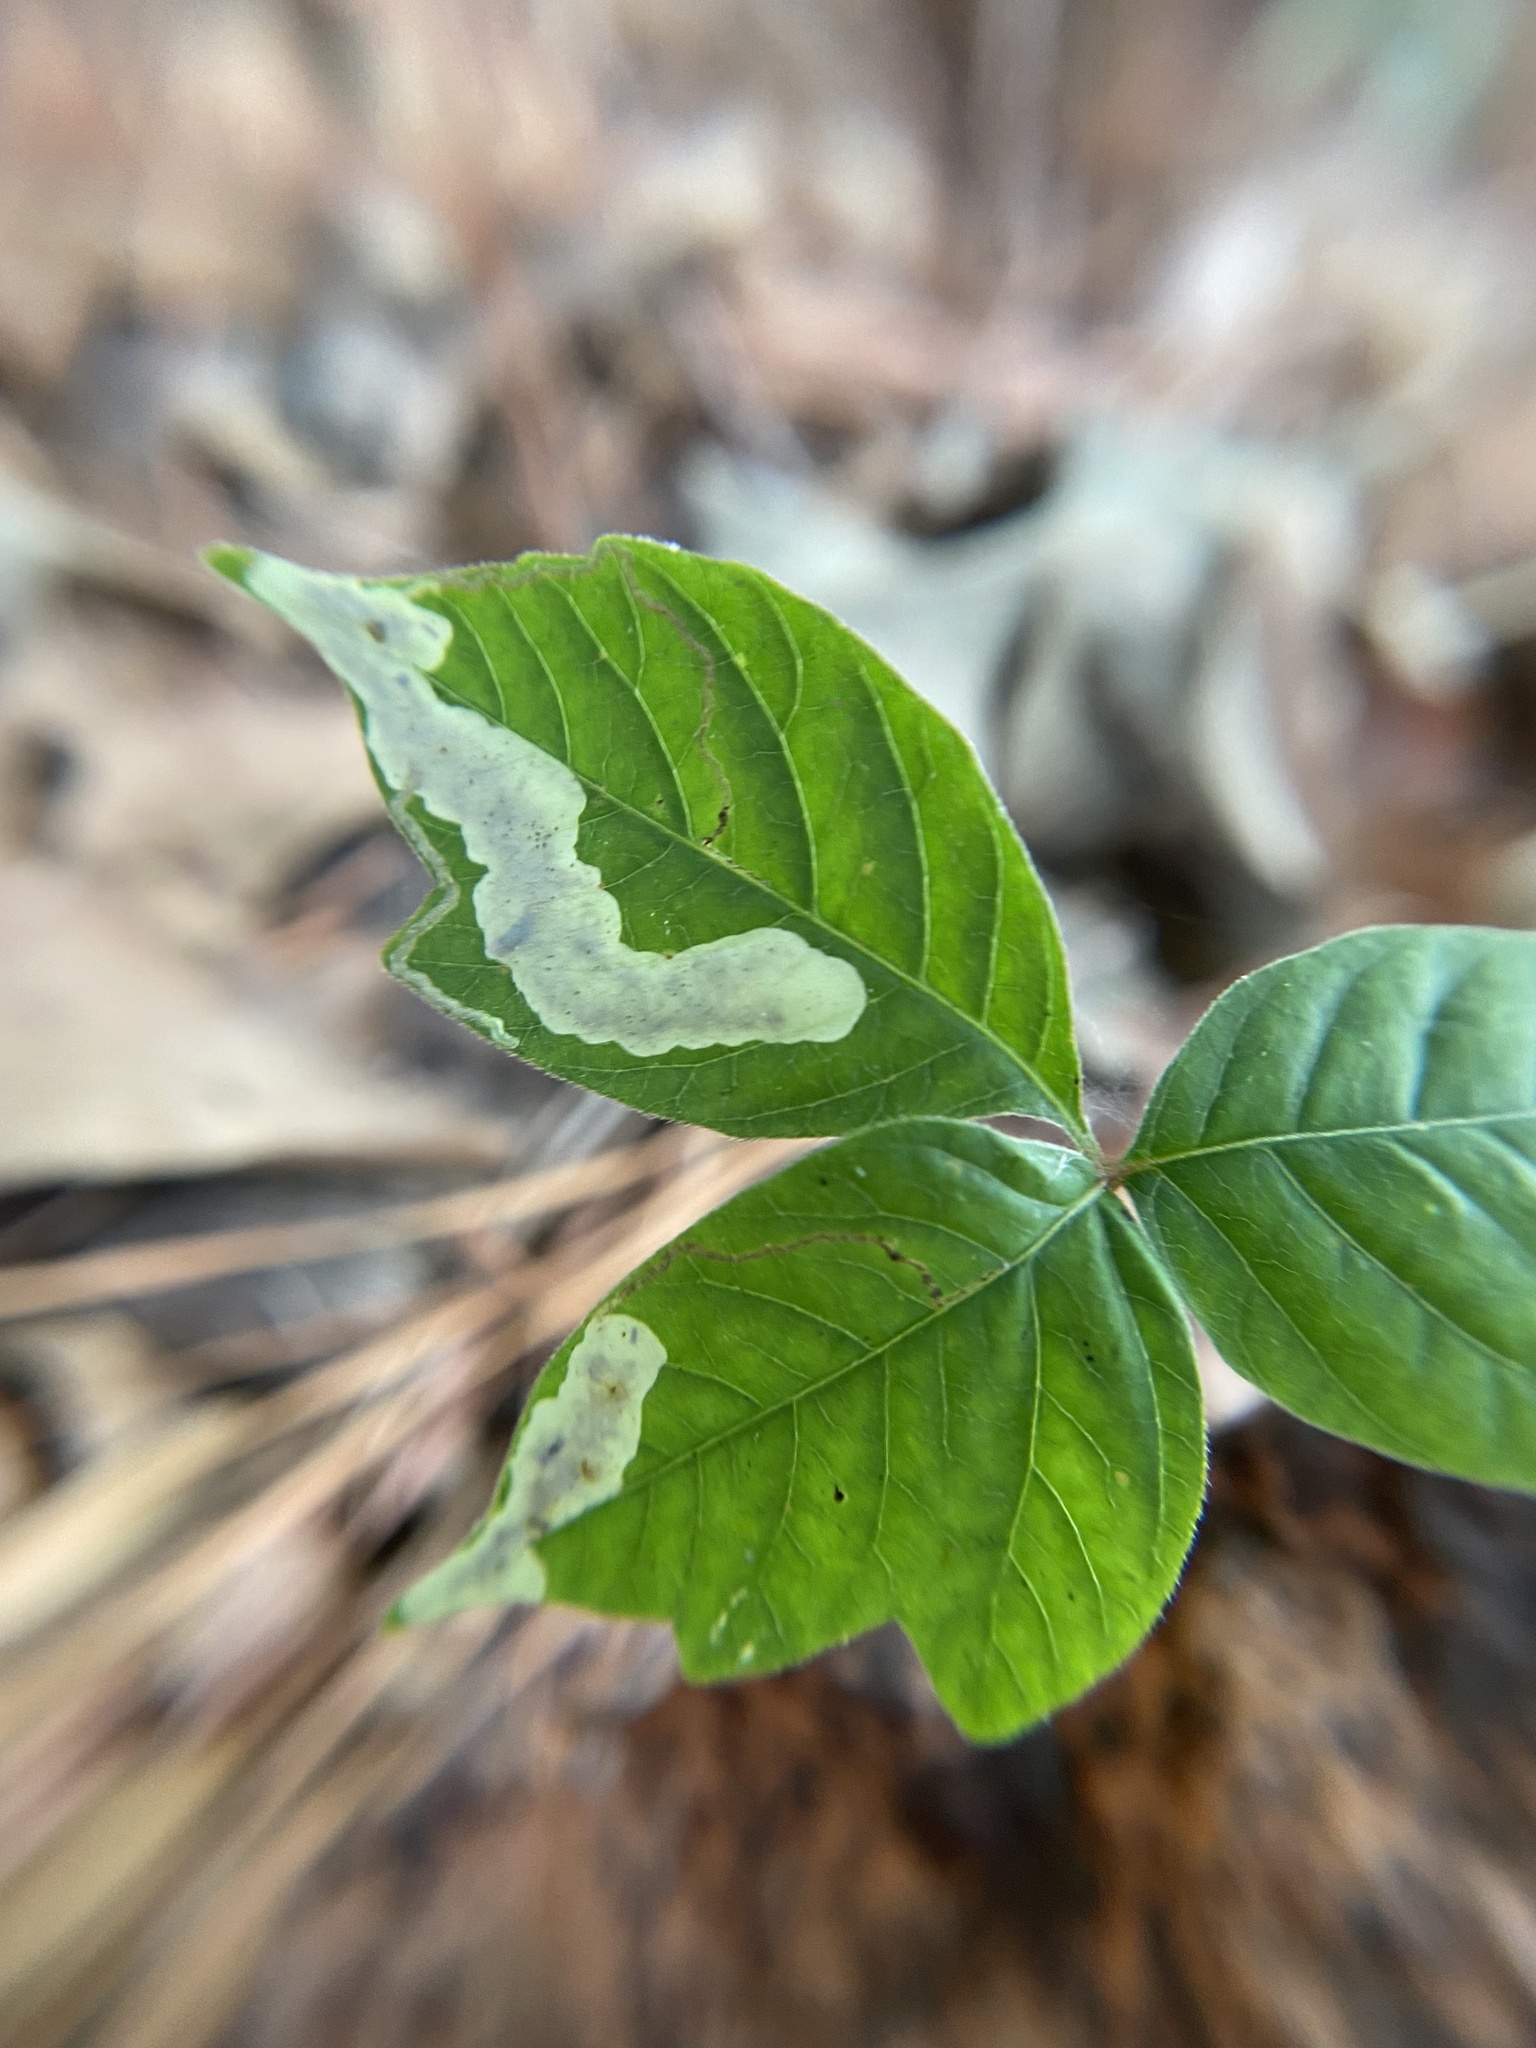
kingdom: Animalia
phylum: Arthropoda
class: Insecta
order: Lepidoptera
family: Gracillariidae
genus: Cameraria
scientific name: Cameraria guttifinitella
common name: Poison ivy leaf-miner moth
